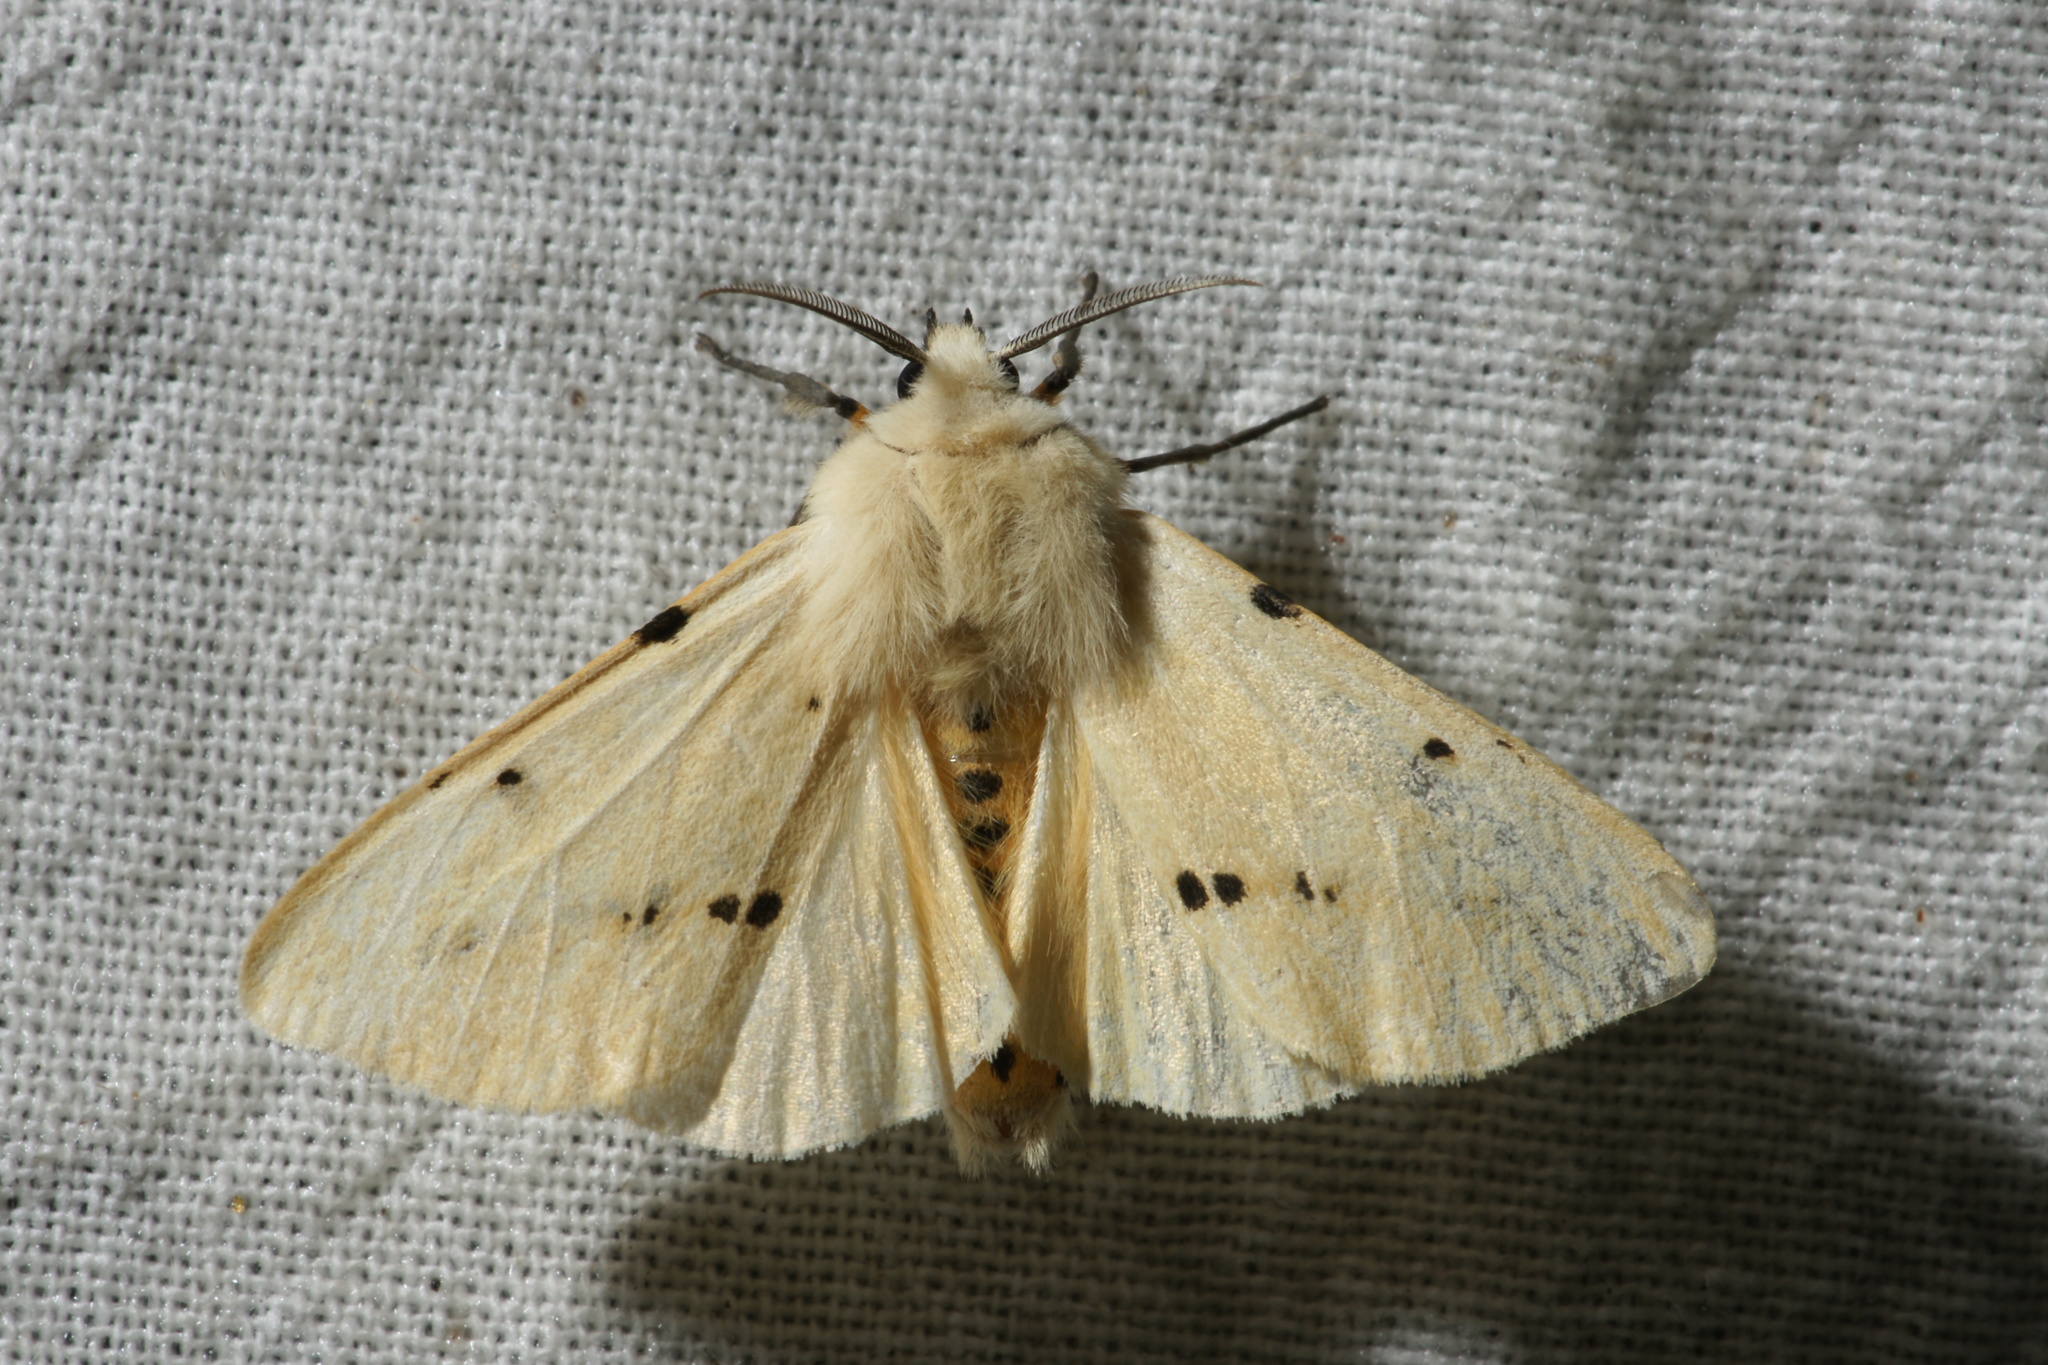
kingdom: Animalia
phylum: Arthropoda
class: Insecta
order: Lepidoptera
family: Erebidae
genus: Spilarctia
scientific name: Spilarctia lutea
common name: Buff ermine
